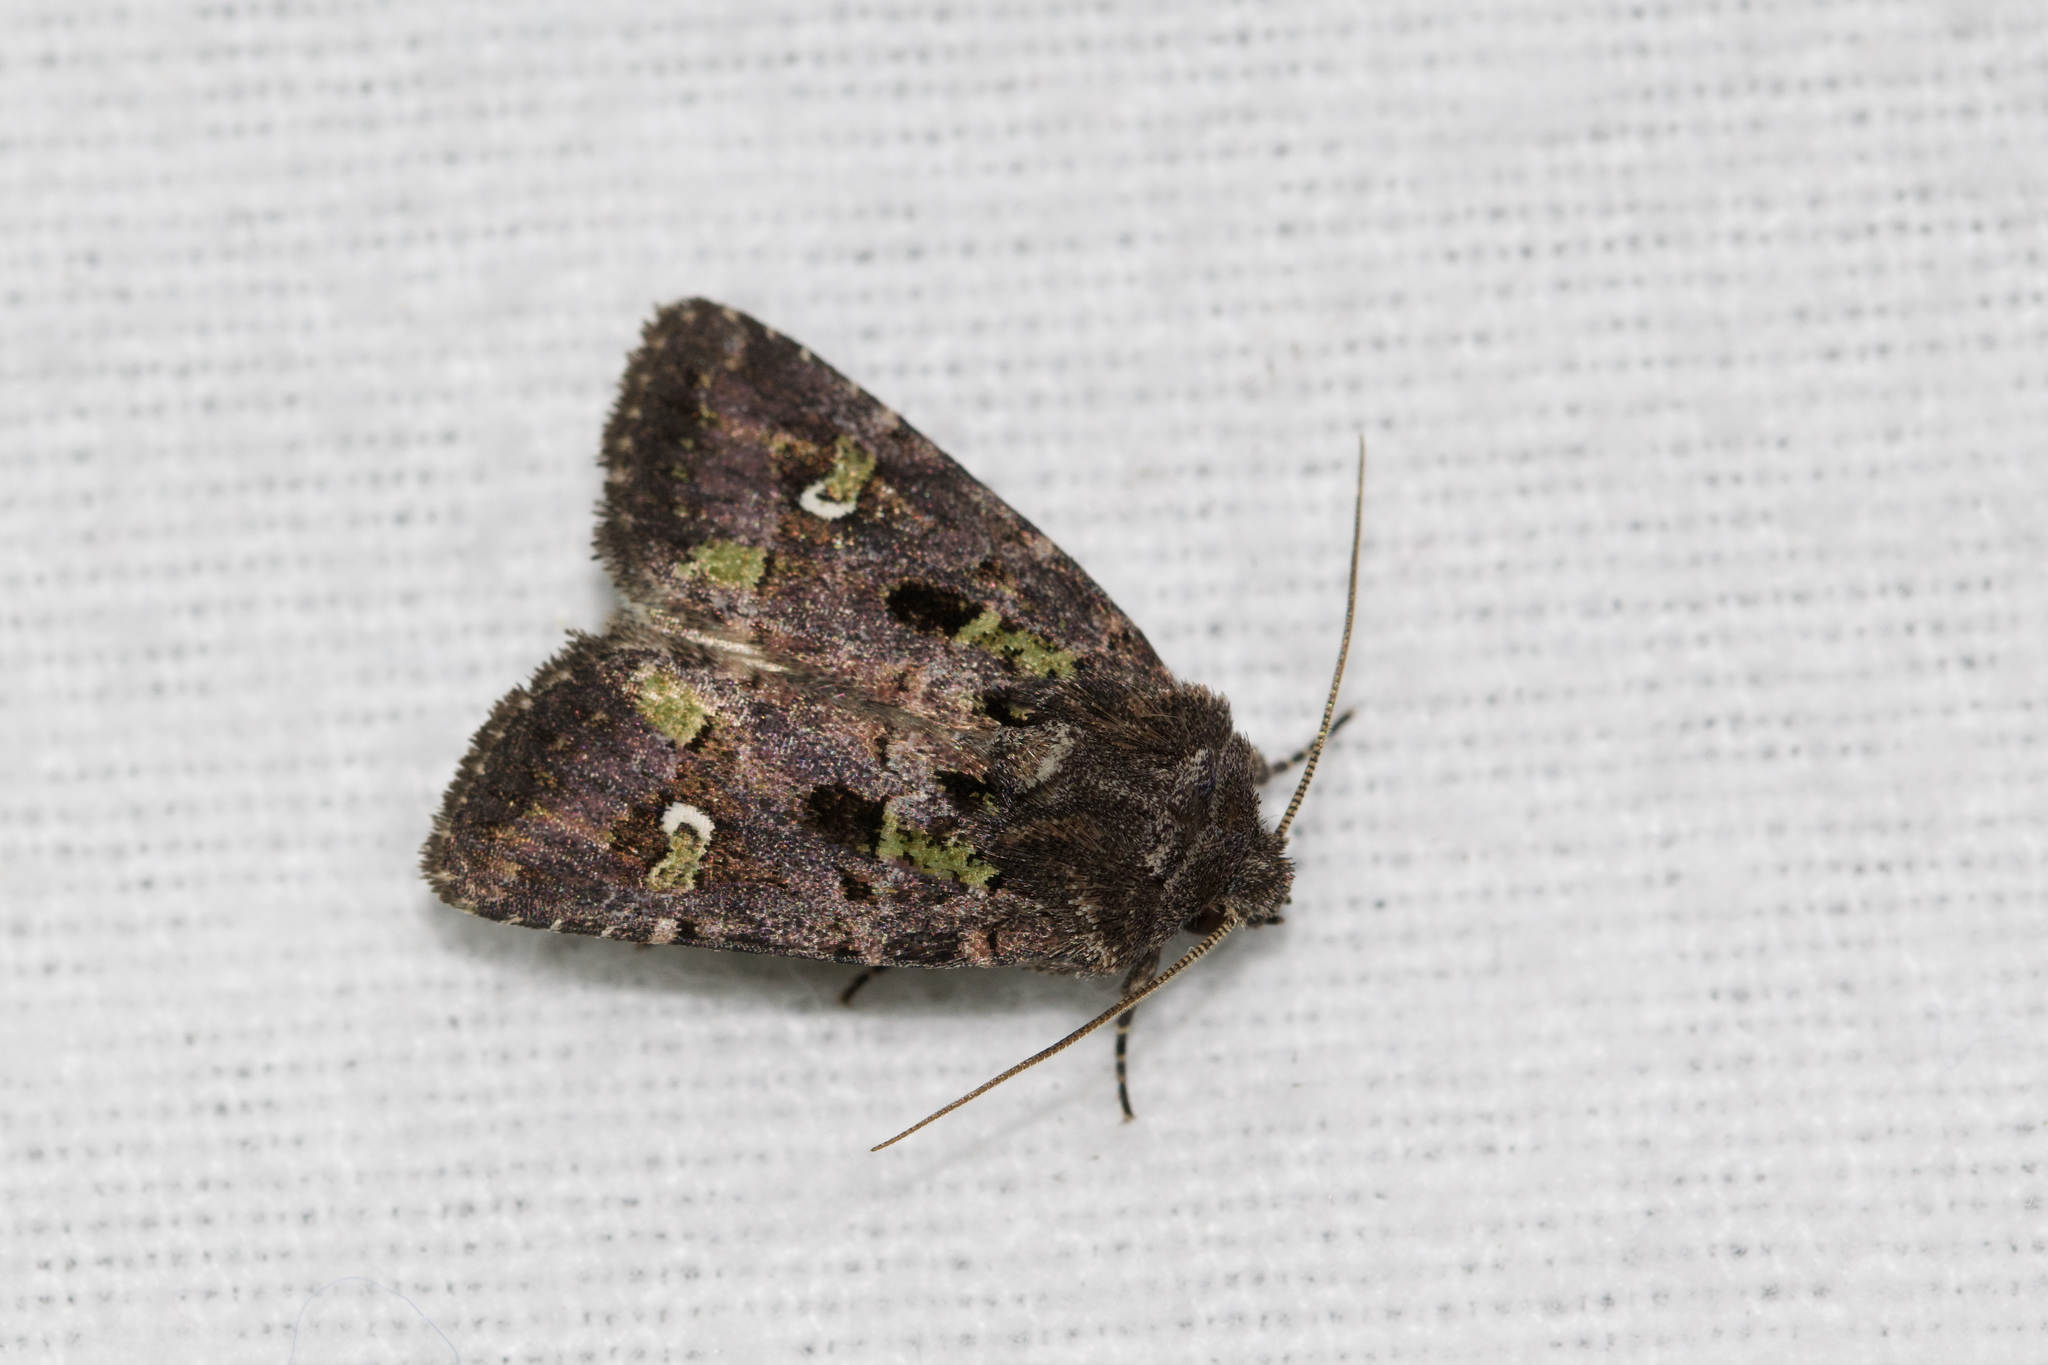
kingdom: Animalia
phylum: Arthropoda
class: Insecta
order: Lepidoptera
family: Noctuidae
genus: Lacinipolia
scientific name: Lacinipolia renigera
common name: Kidney-spotted minor
